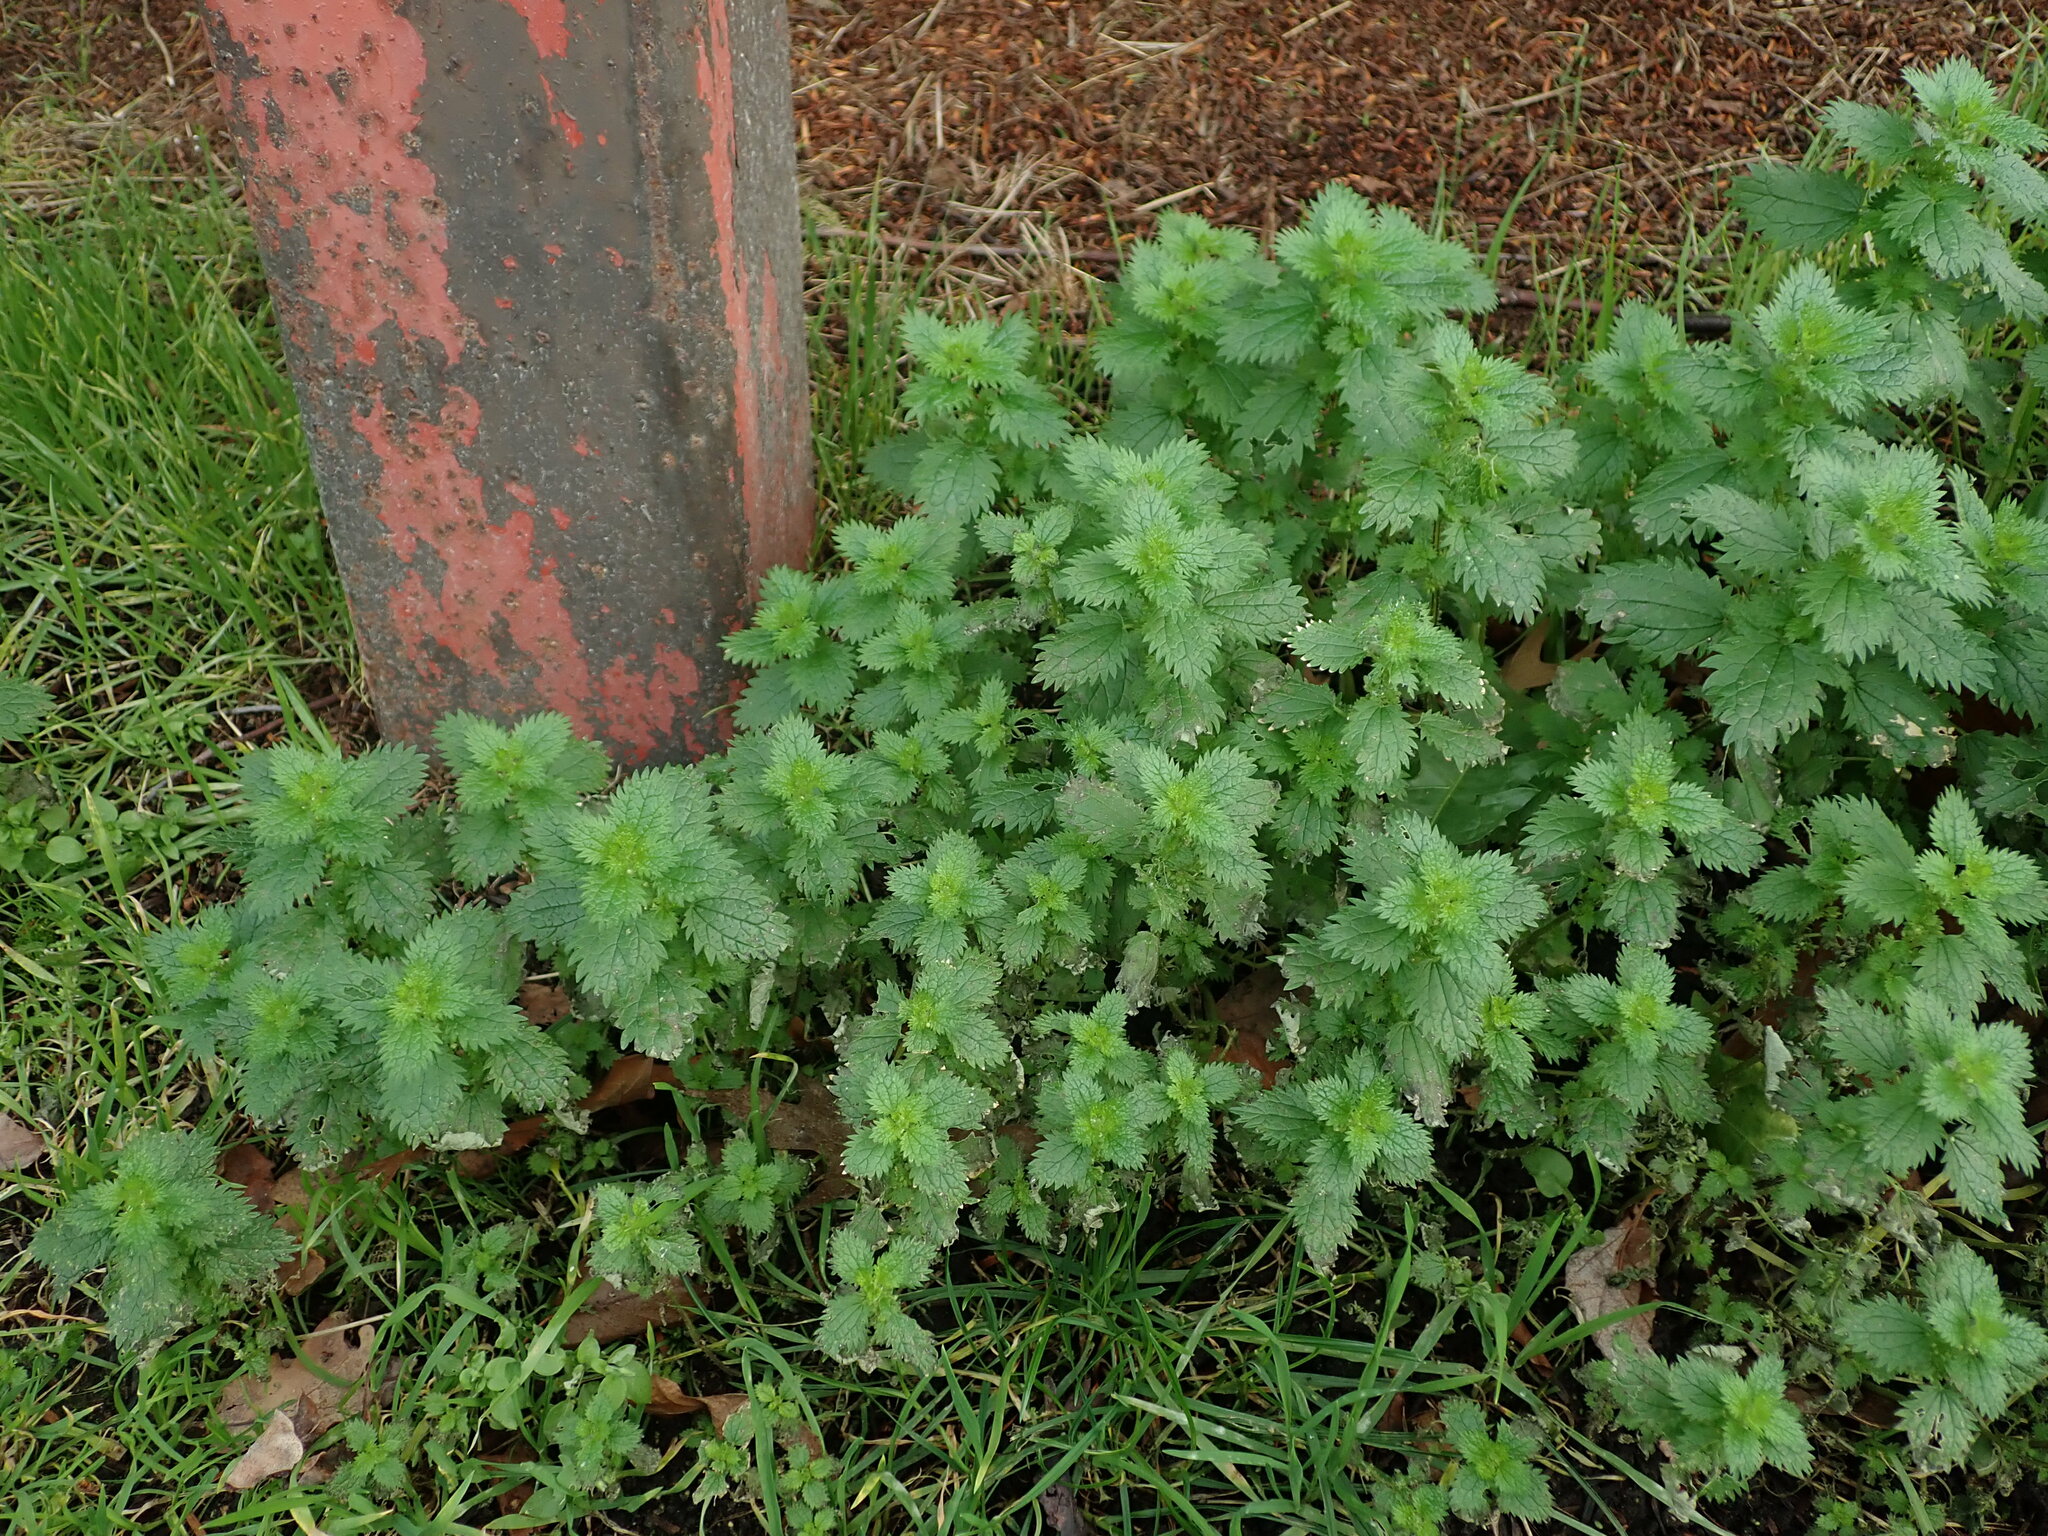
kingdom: Plantae
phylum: Tracheophyta
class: Magnoliopsida
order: Rosales
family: Urticaceae
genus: Urtica
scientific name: Urtica urens
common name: Dwarf nettle
